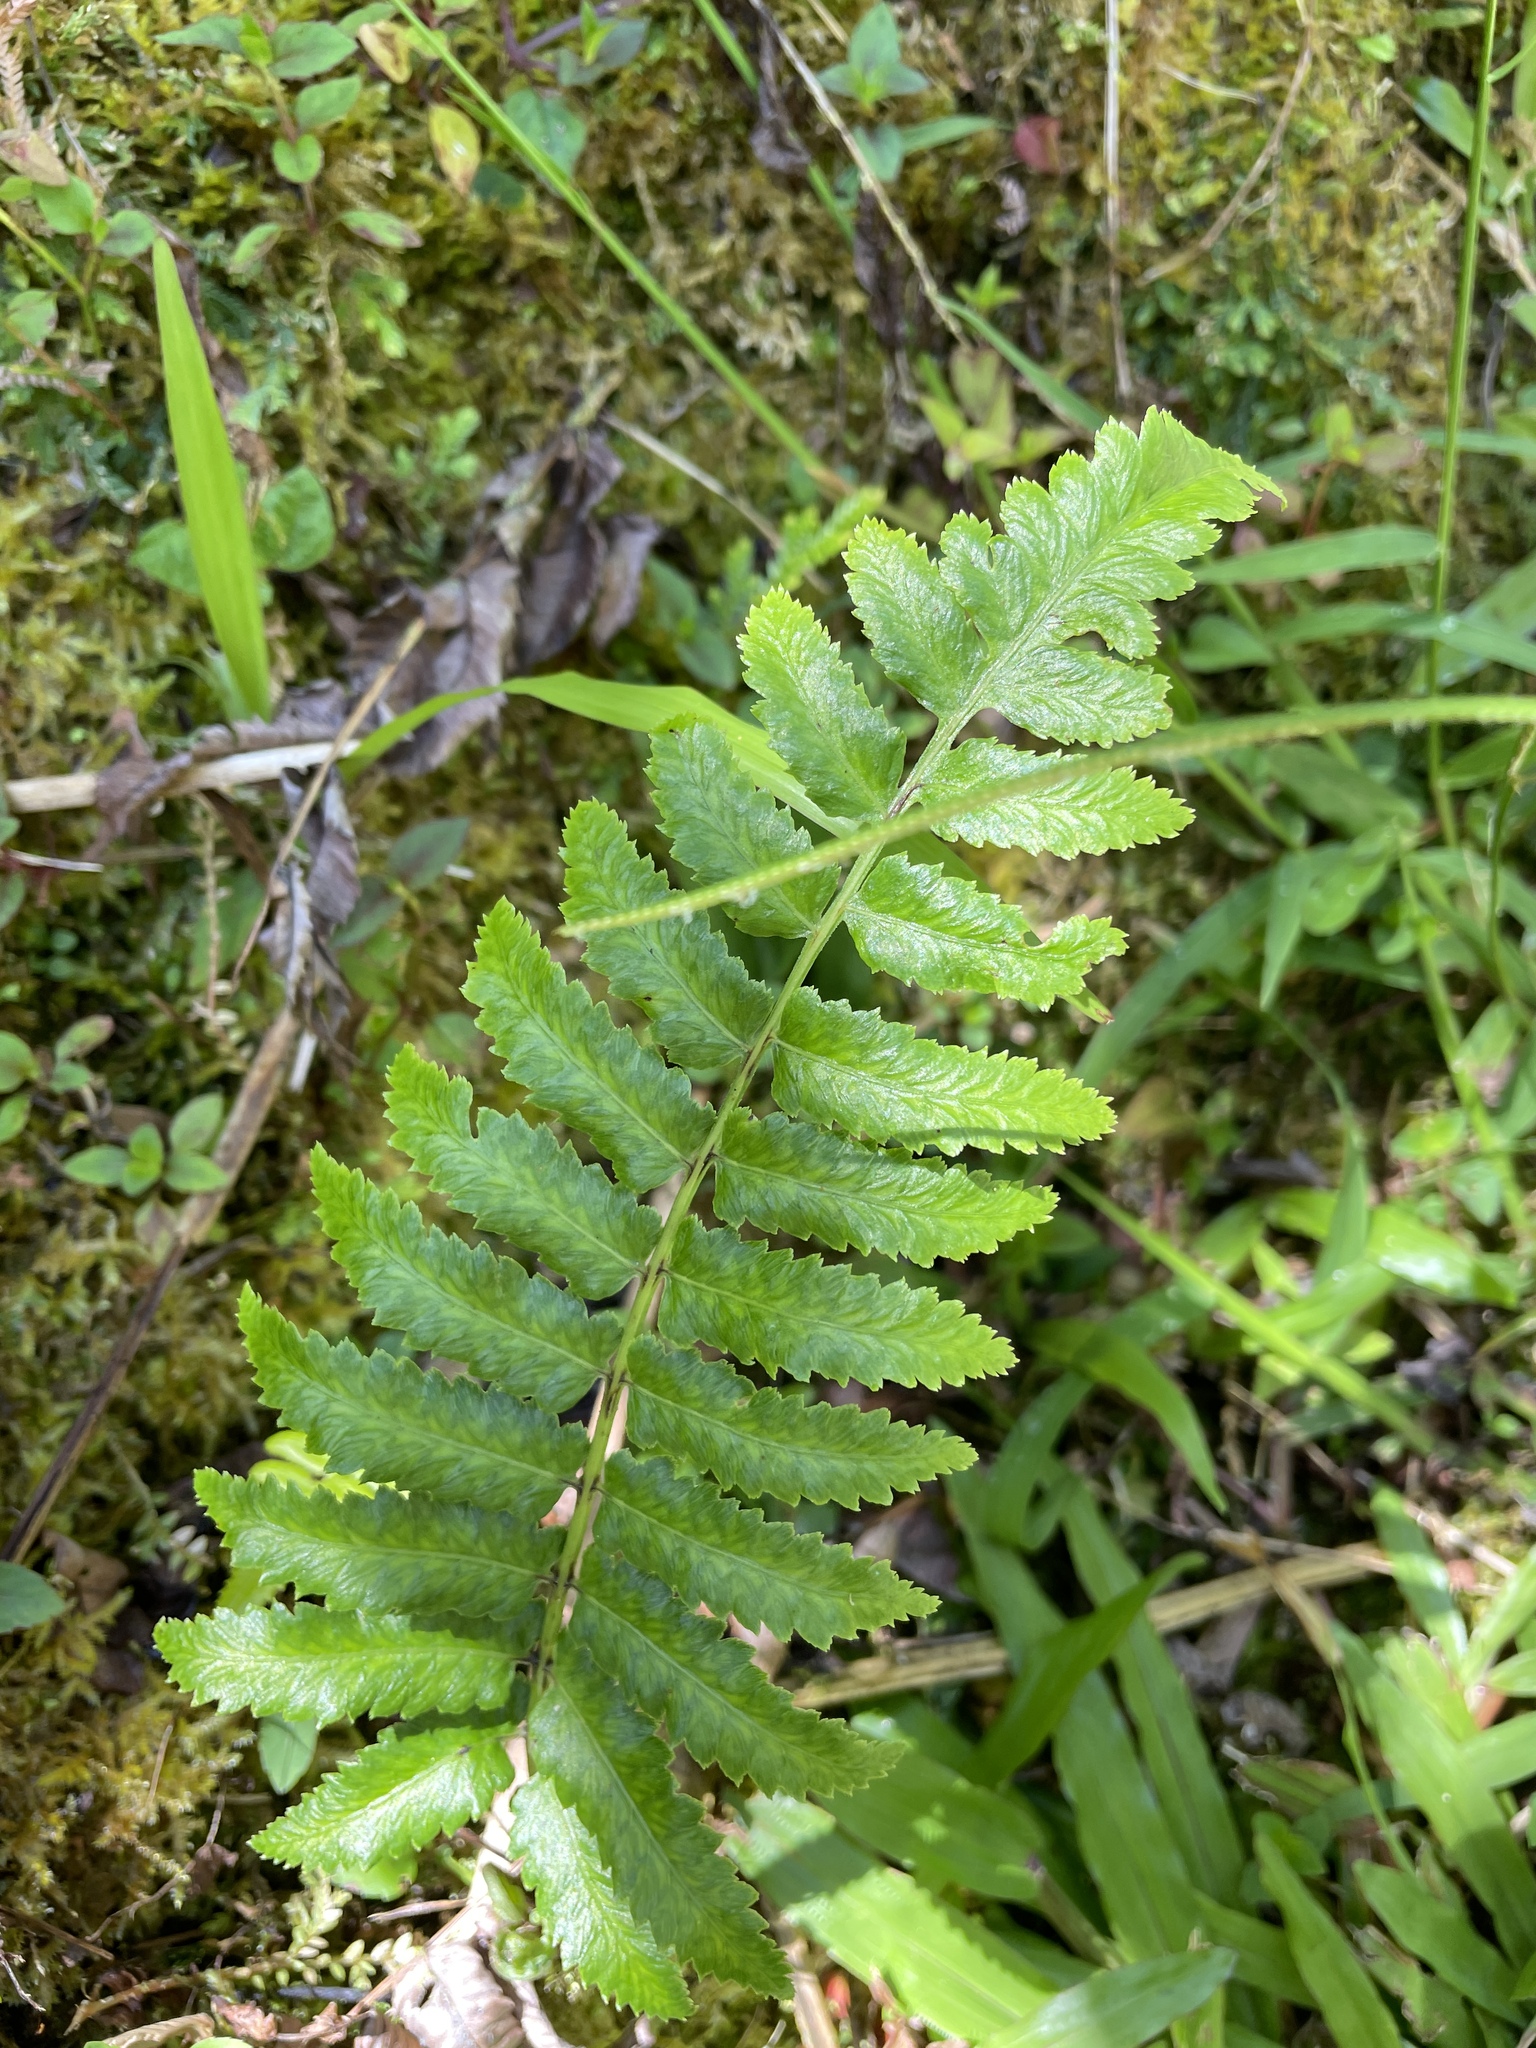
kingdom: Plantae
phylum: Tracheophyta
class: Polypodiopsida
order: Polypodiales
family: Athyriaceae
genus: Diplazium
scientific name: Diplazium esculentum
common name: Vegetable fern
